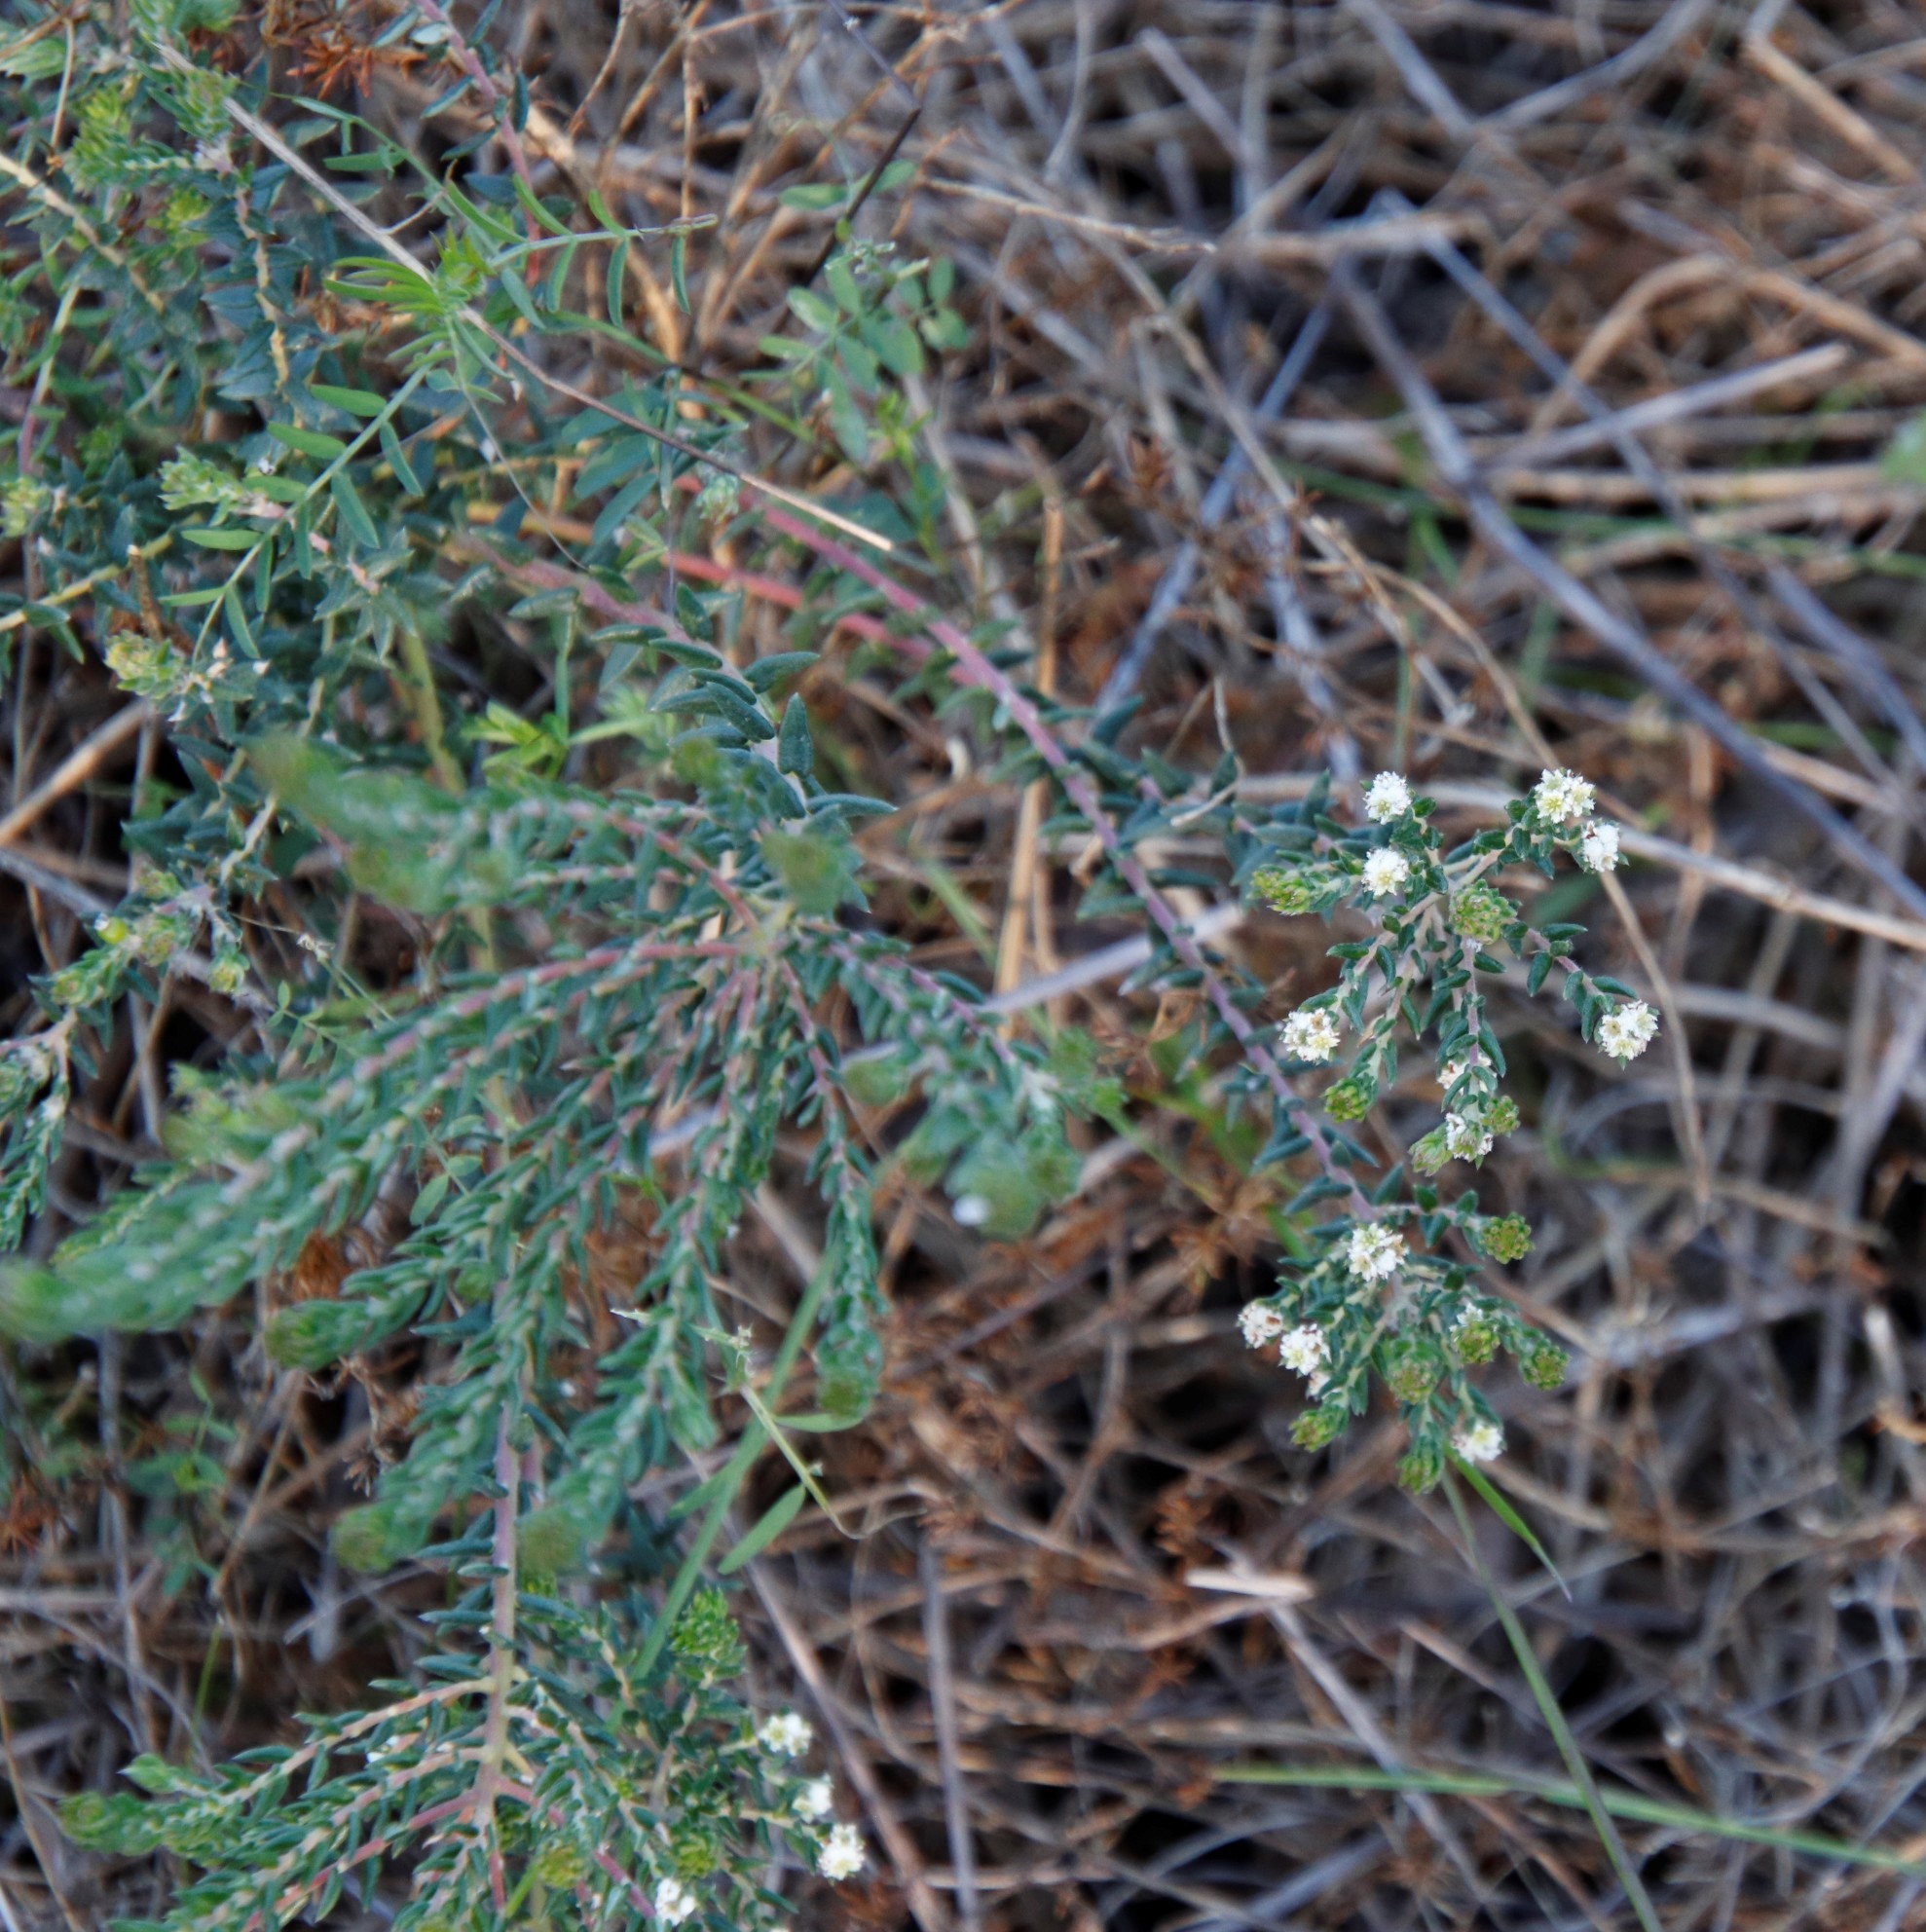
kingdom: Plantae
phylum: Tracheophyta
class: Magnoliopsida
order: Rosales
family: Rhamnaceae
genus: Phylica
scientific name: Phylica parviflora
